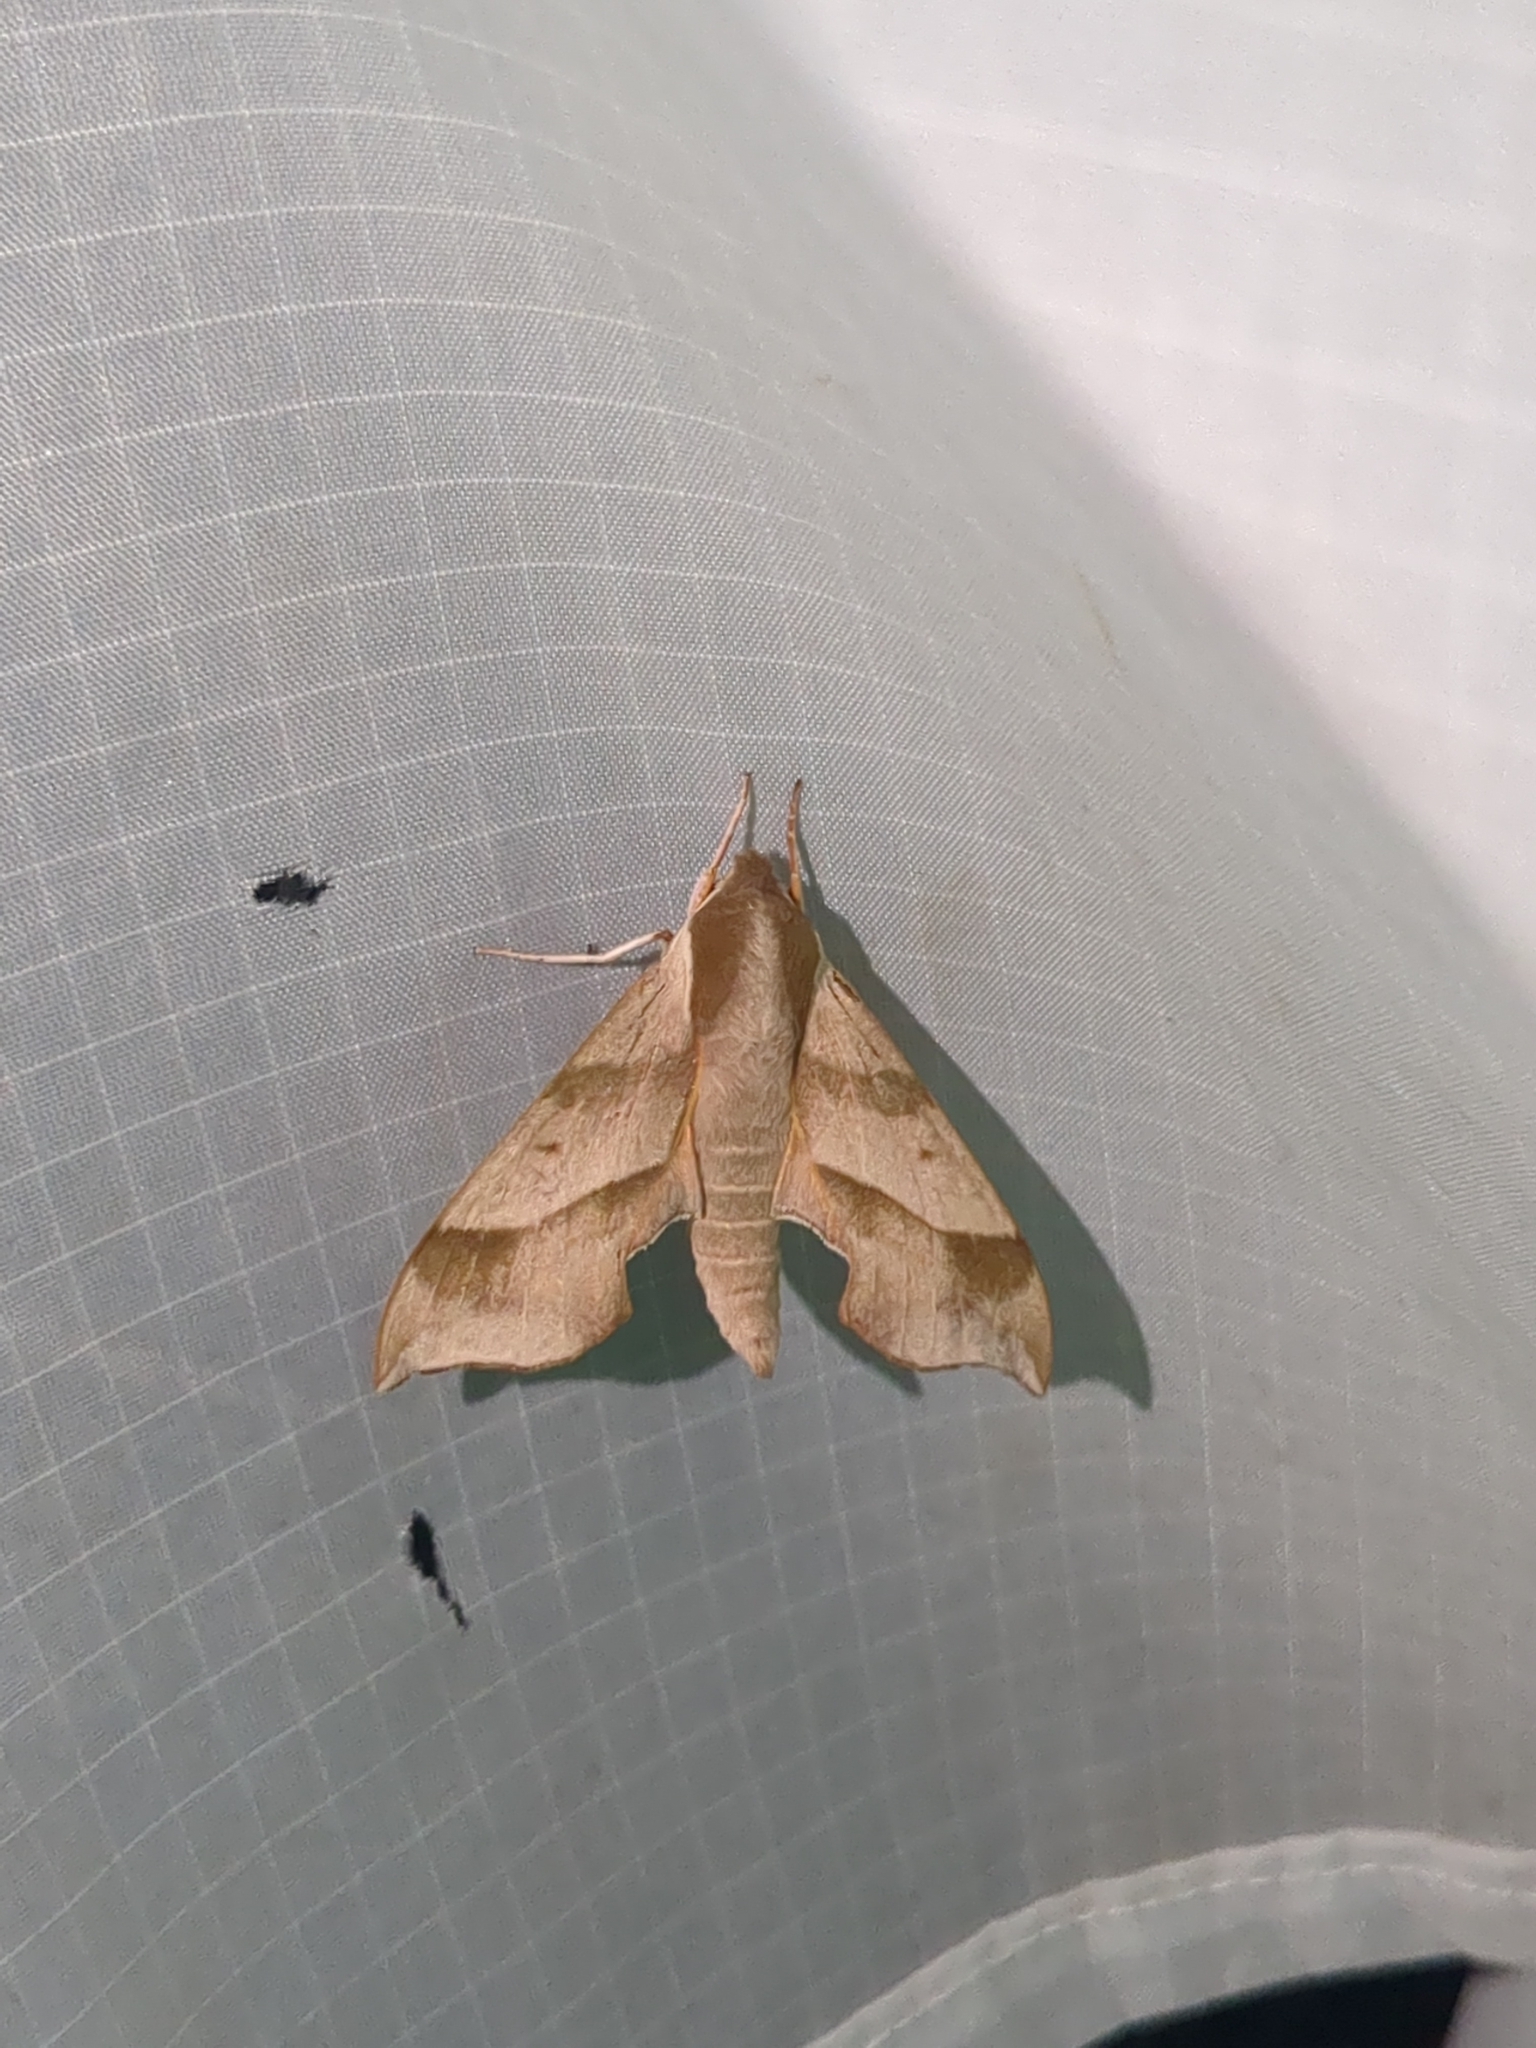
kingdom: Animalia
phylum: Arthropoda
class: Insecta
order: Lepidoptera
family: Sphingidae
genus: Darapsa
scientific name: Darapsa myron
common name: Hog sphinx
